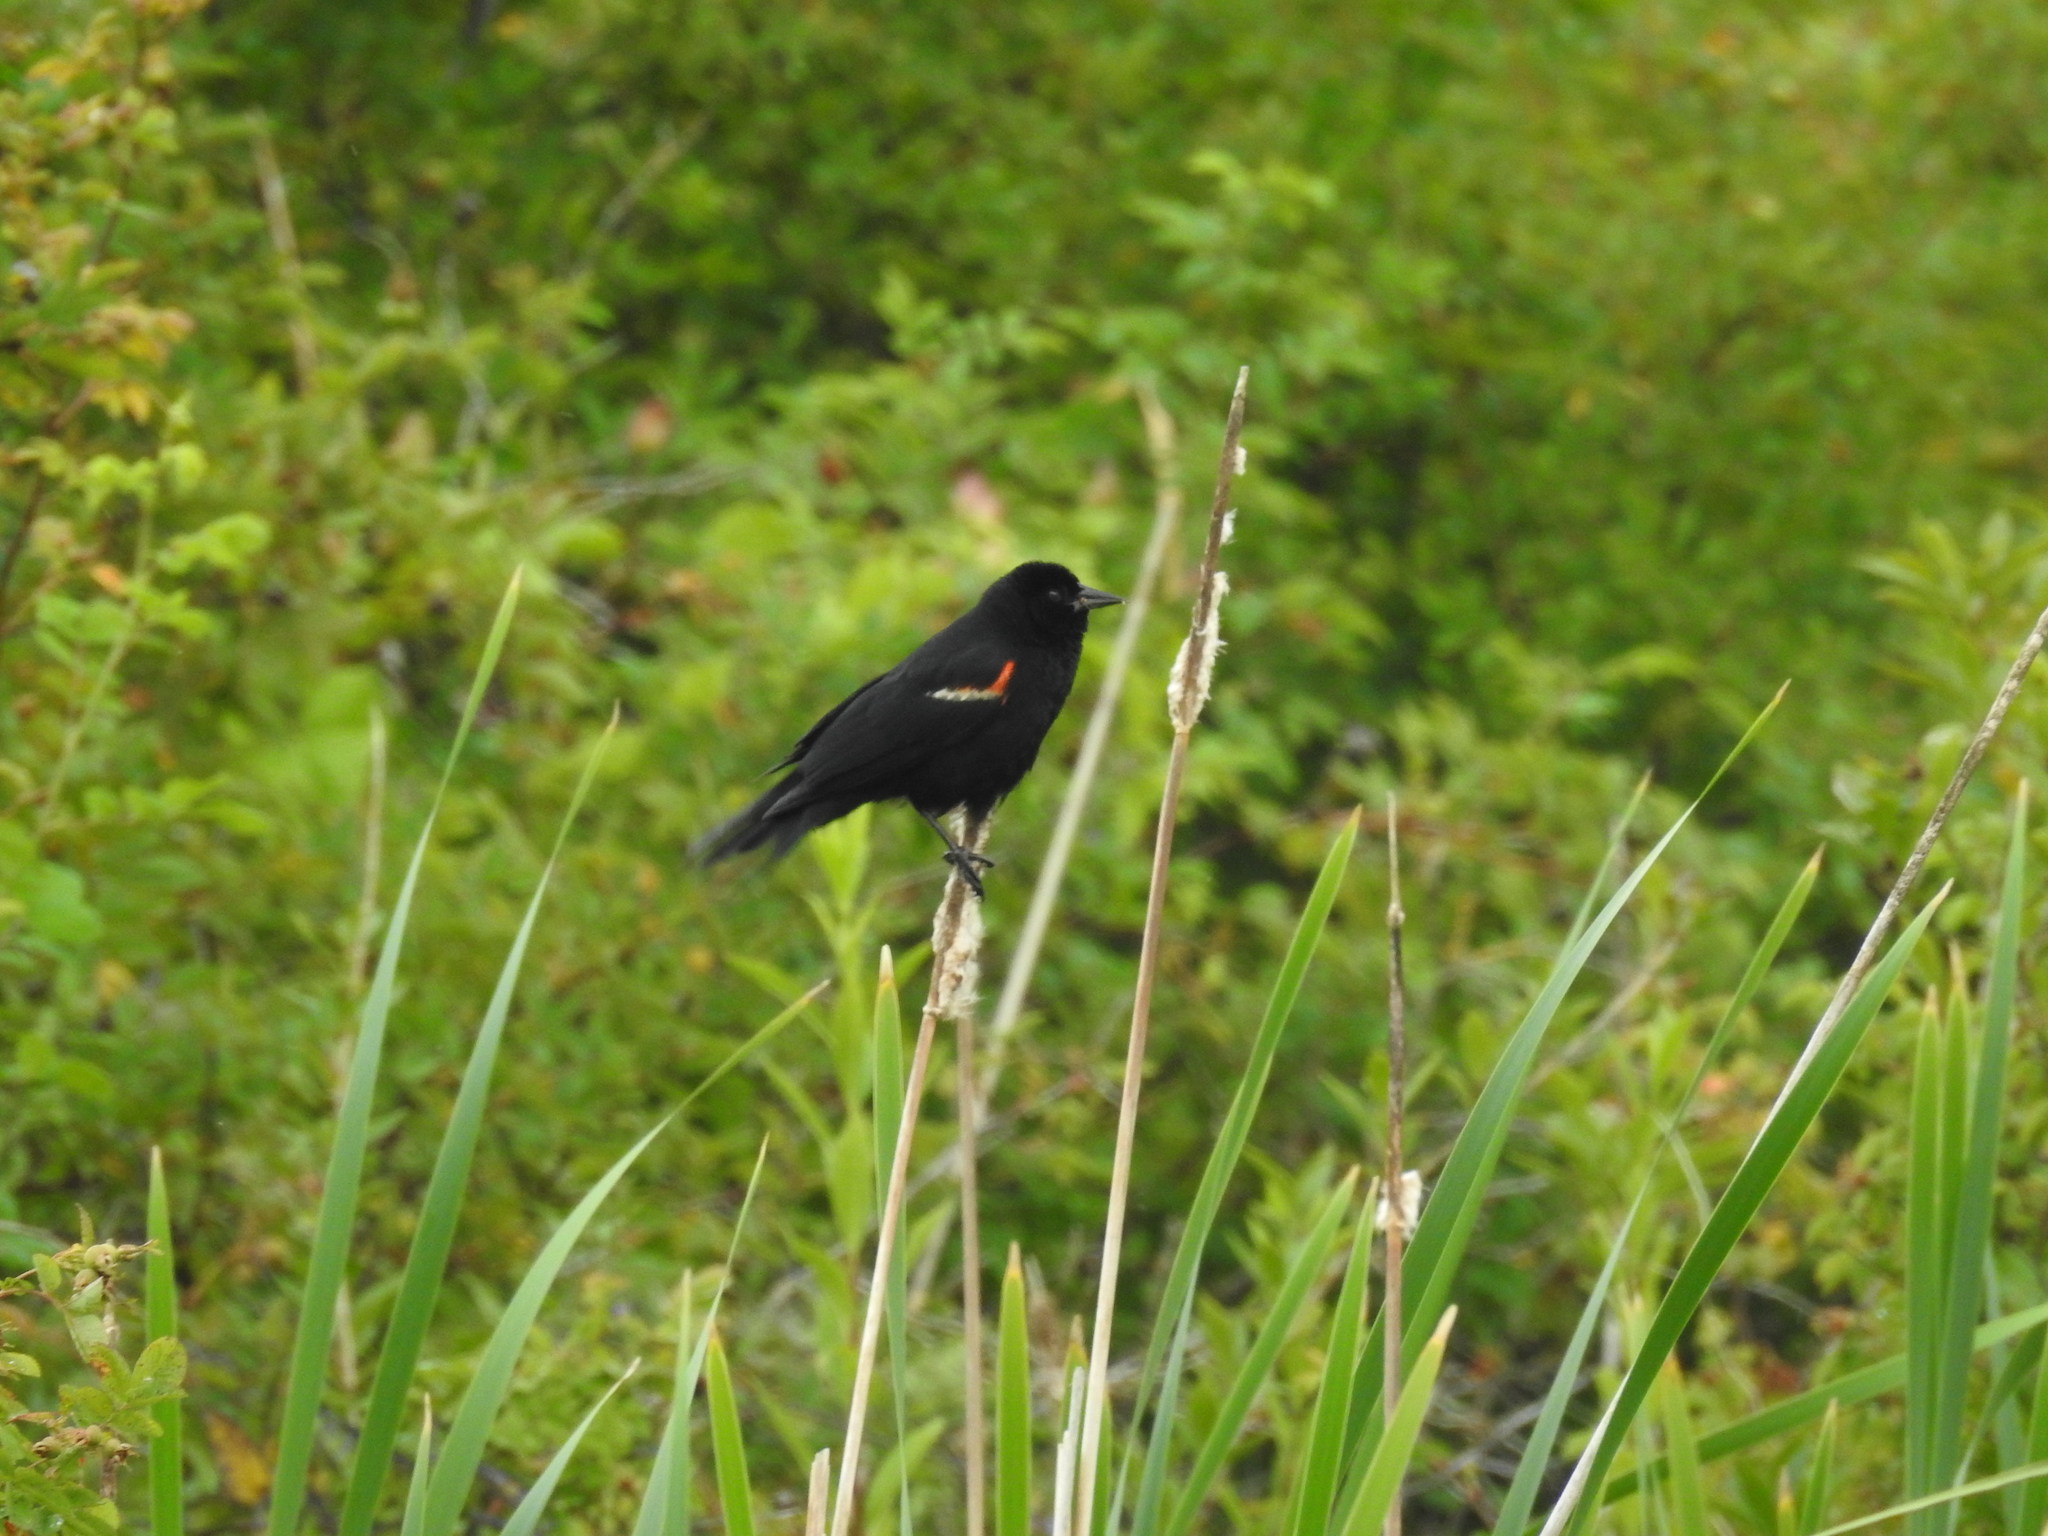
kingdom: Animalia
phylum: Chordata
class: Aves
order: Passeriformes
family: Icteridae
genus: Agelaius
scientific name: Agelaius phoeniceus
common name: Red-winged blackbird
